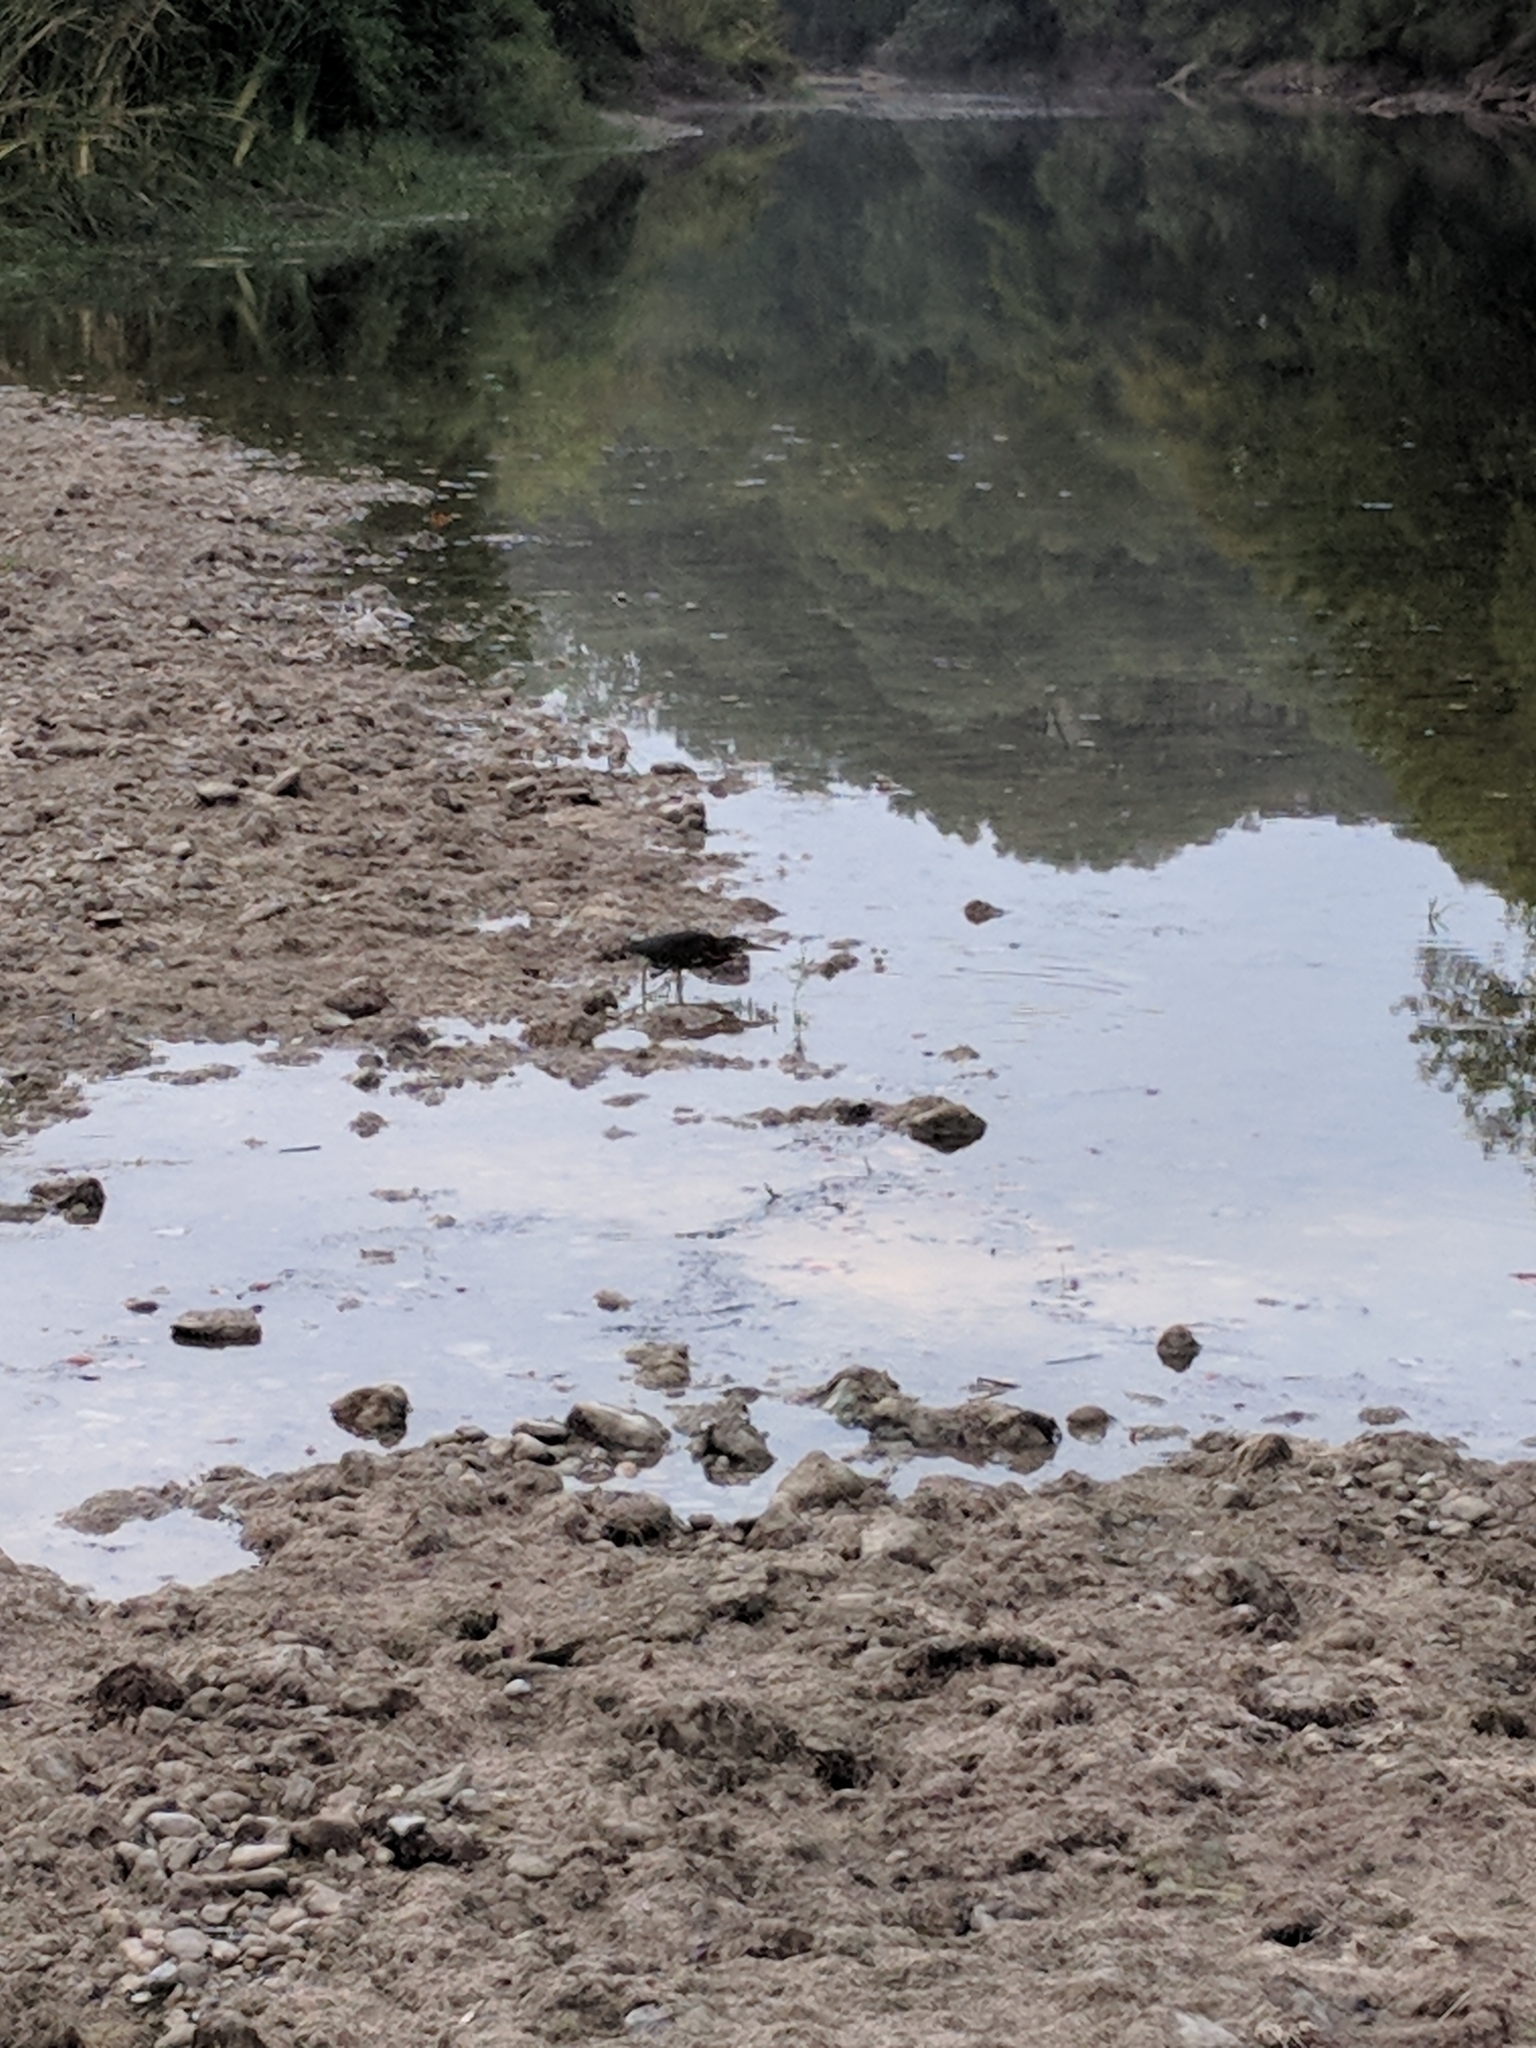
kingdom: Animalia
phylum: Chordata
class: Aves
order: Pelecaniformes
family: Ardeidae
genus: Butorides
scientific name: Butorides virescens
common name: Green heron
